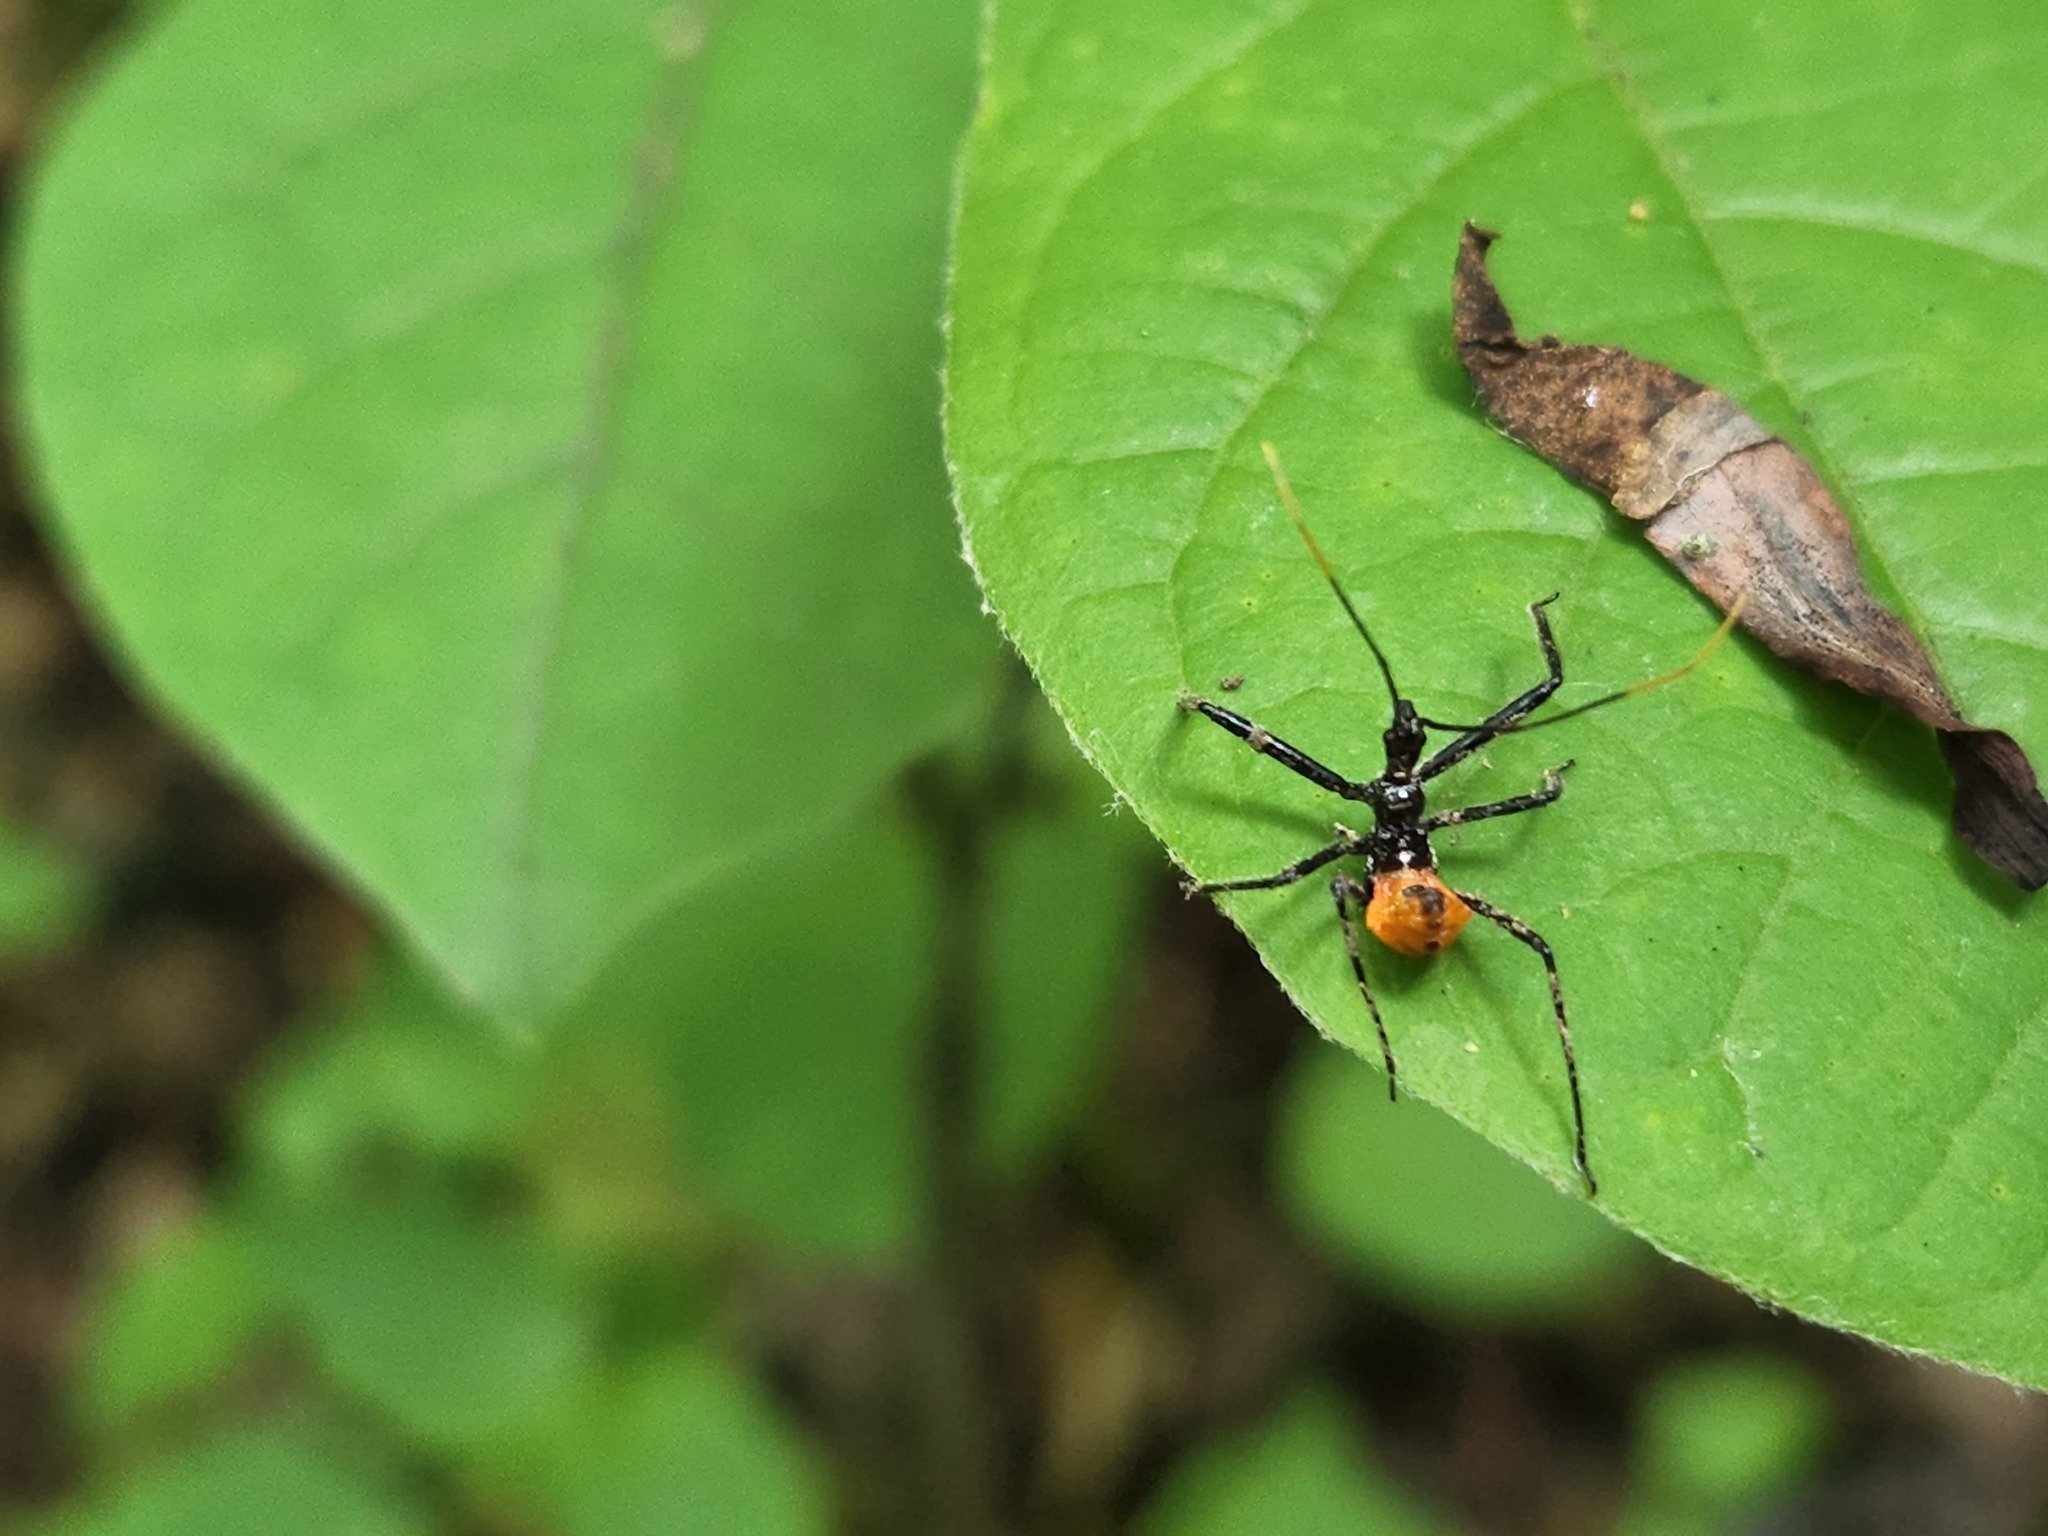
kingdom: Animalia
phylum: Arthropoda
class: Insecta
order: Hemiptera
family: Reduviidae
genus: Arilus
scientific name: Arilus cristatus
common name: North american wheel bug
